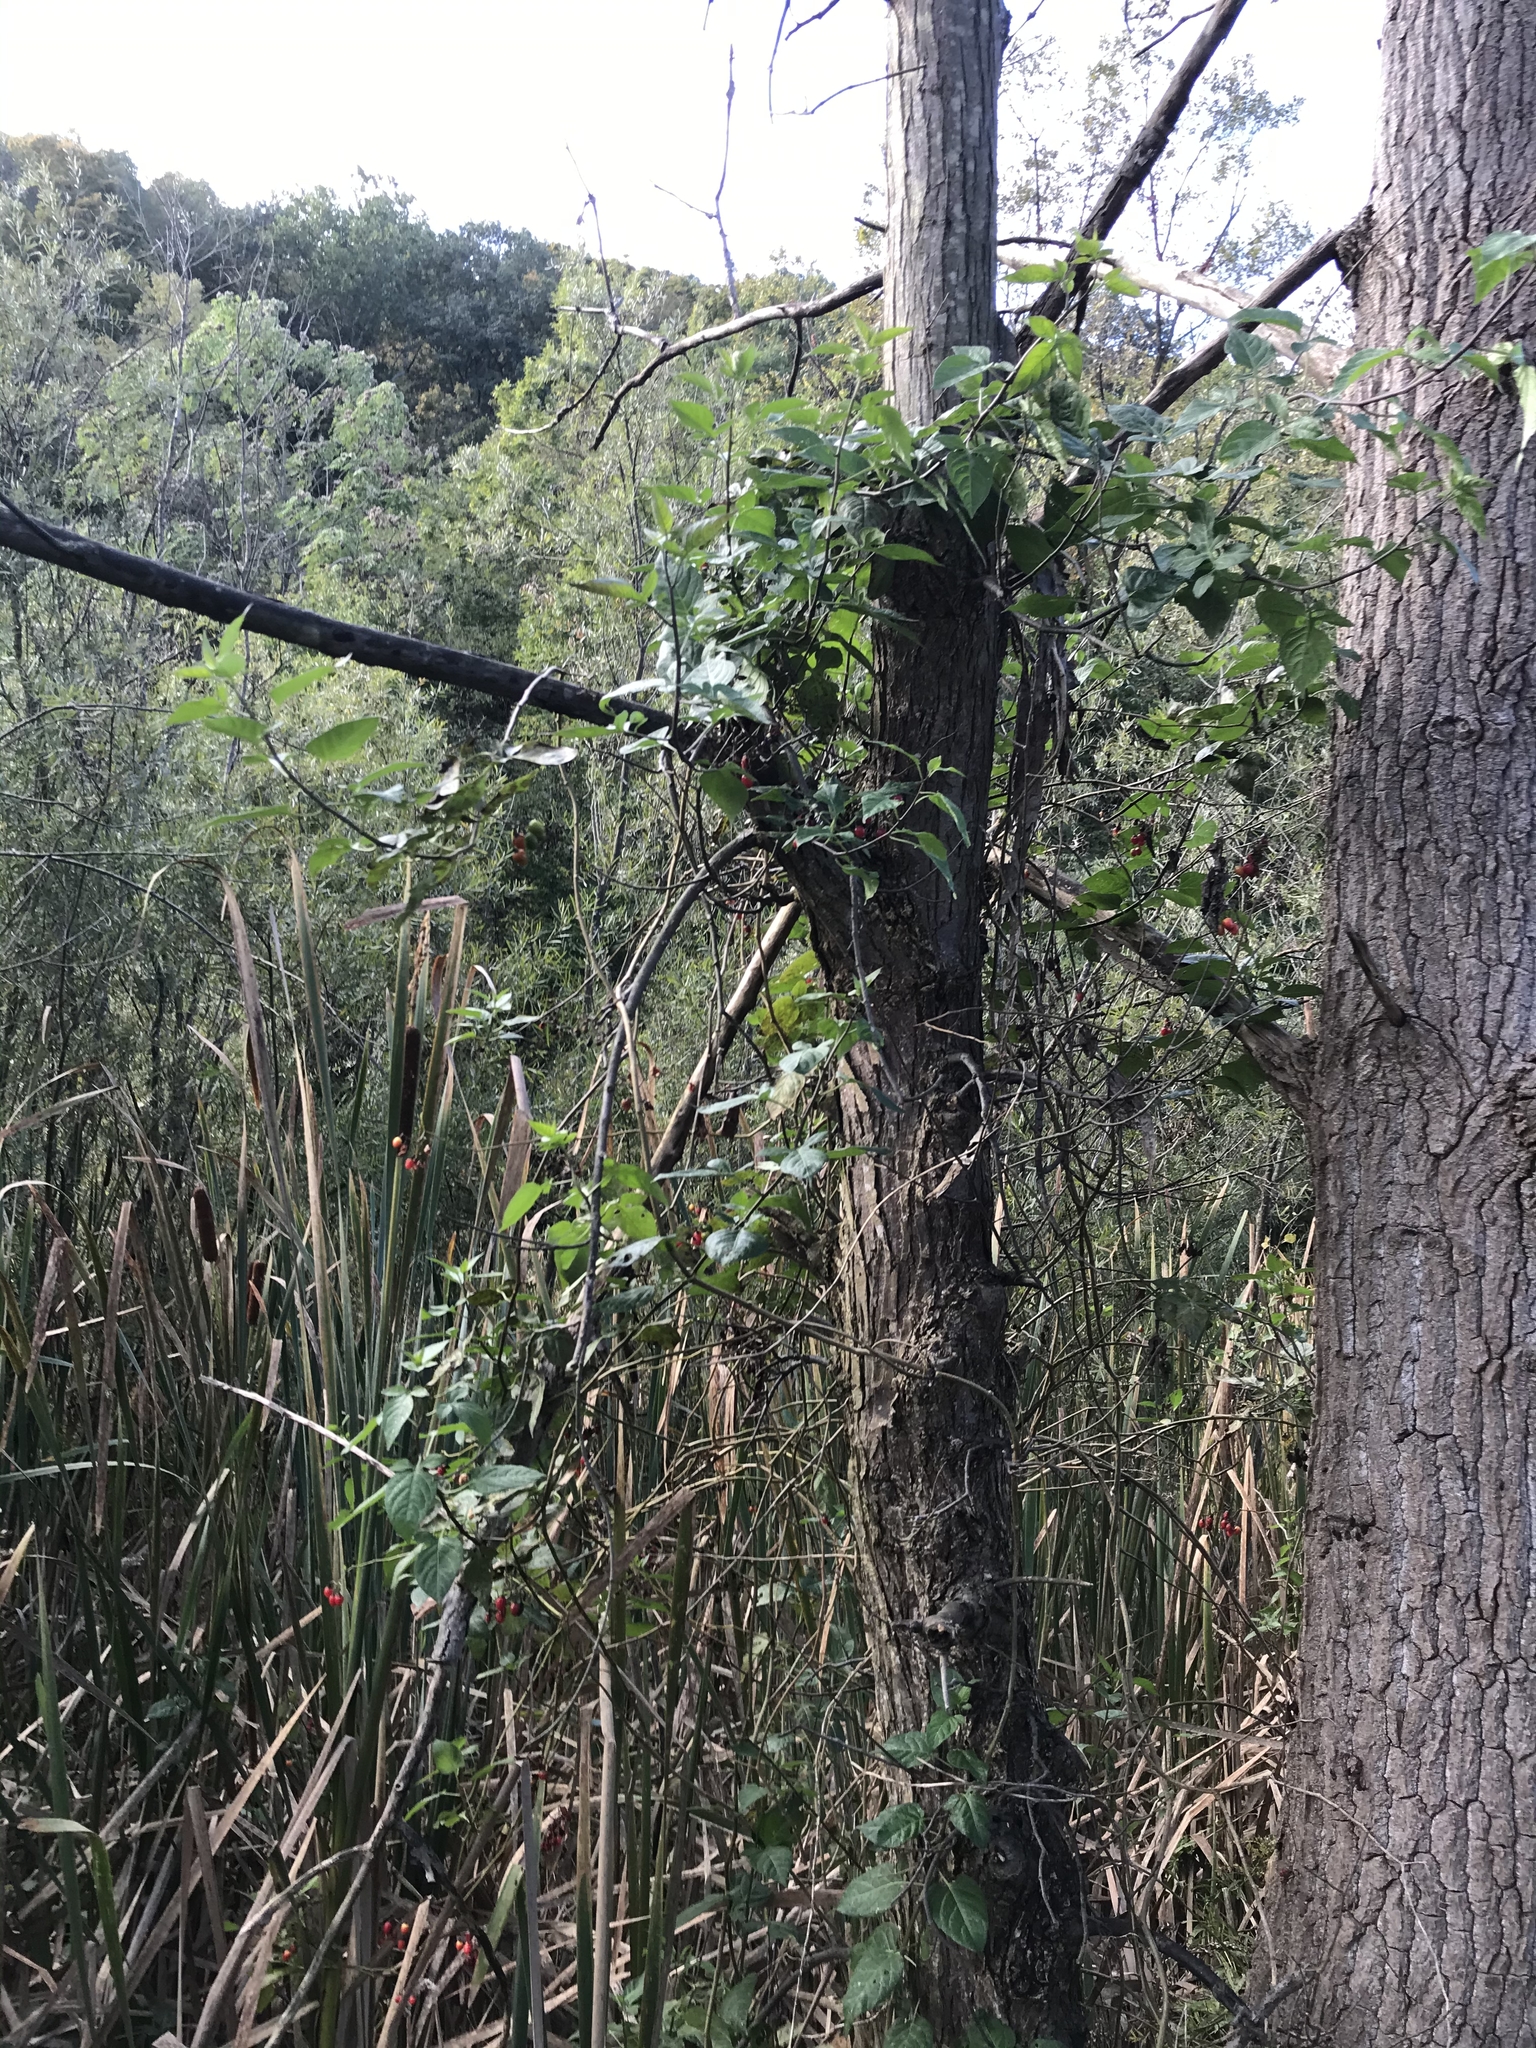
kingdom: Plantae
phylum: Tracheophyta
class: Magnoliopsida
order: Solanales
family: Solanaceae
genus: Solanum
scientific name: Solanum dulcamara
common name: Climbing nightshade
